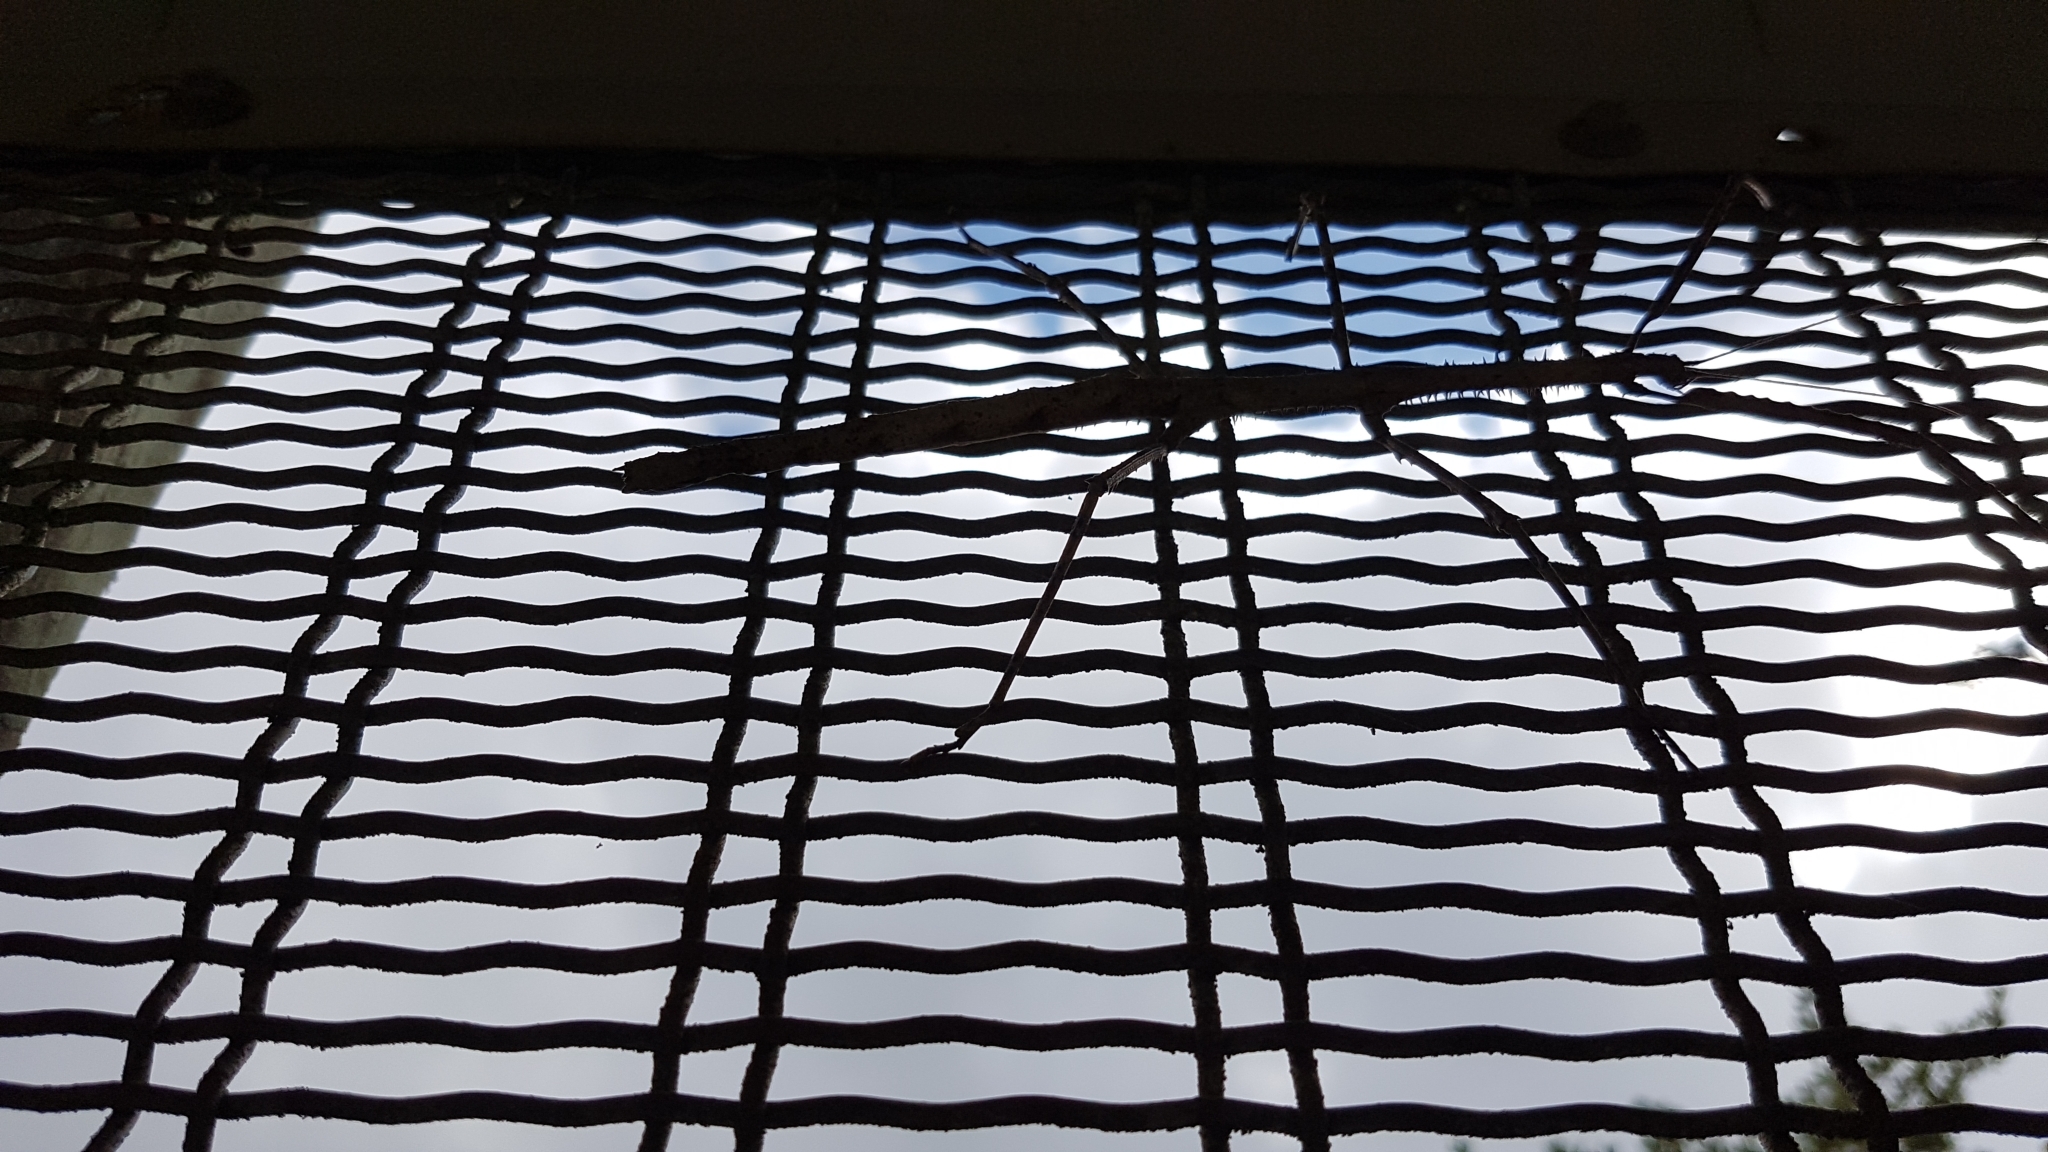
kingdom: Animalia
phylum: Arthropoda
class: Insecta
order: Phasmida
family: Phasmatidae
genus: Argosarchus
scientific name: Argosarchus horridus
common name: Bristly stick insect
